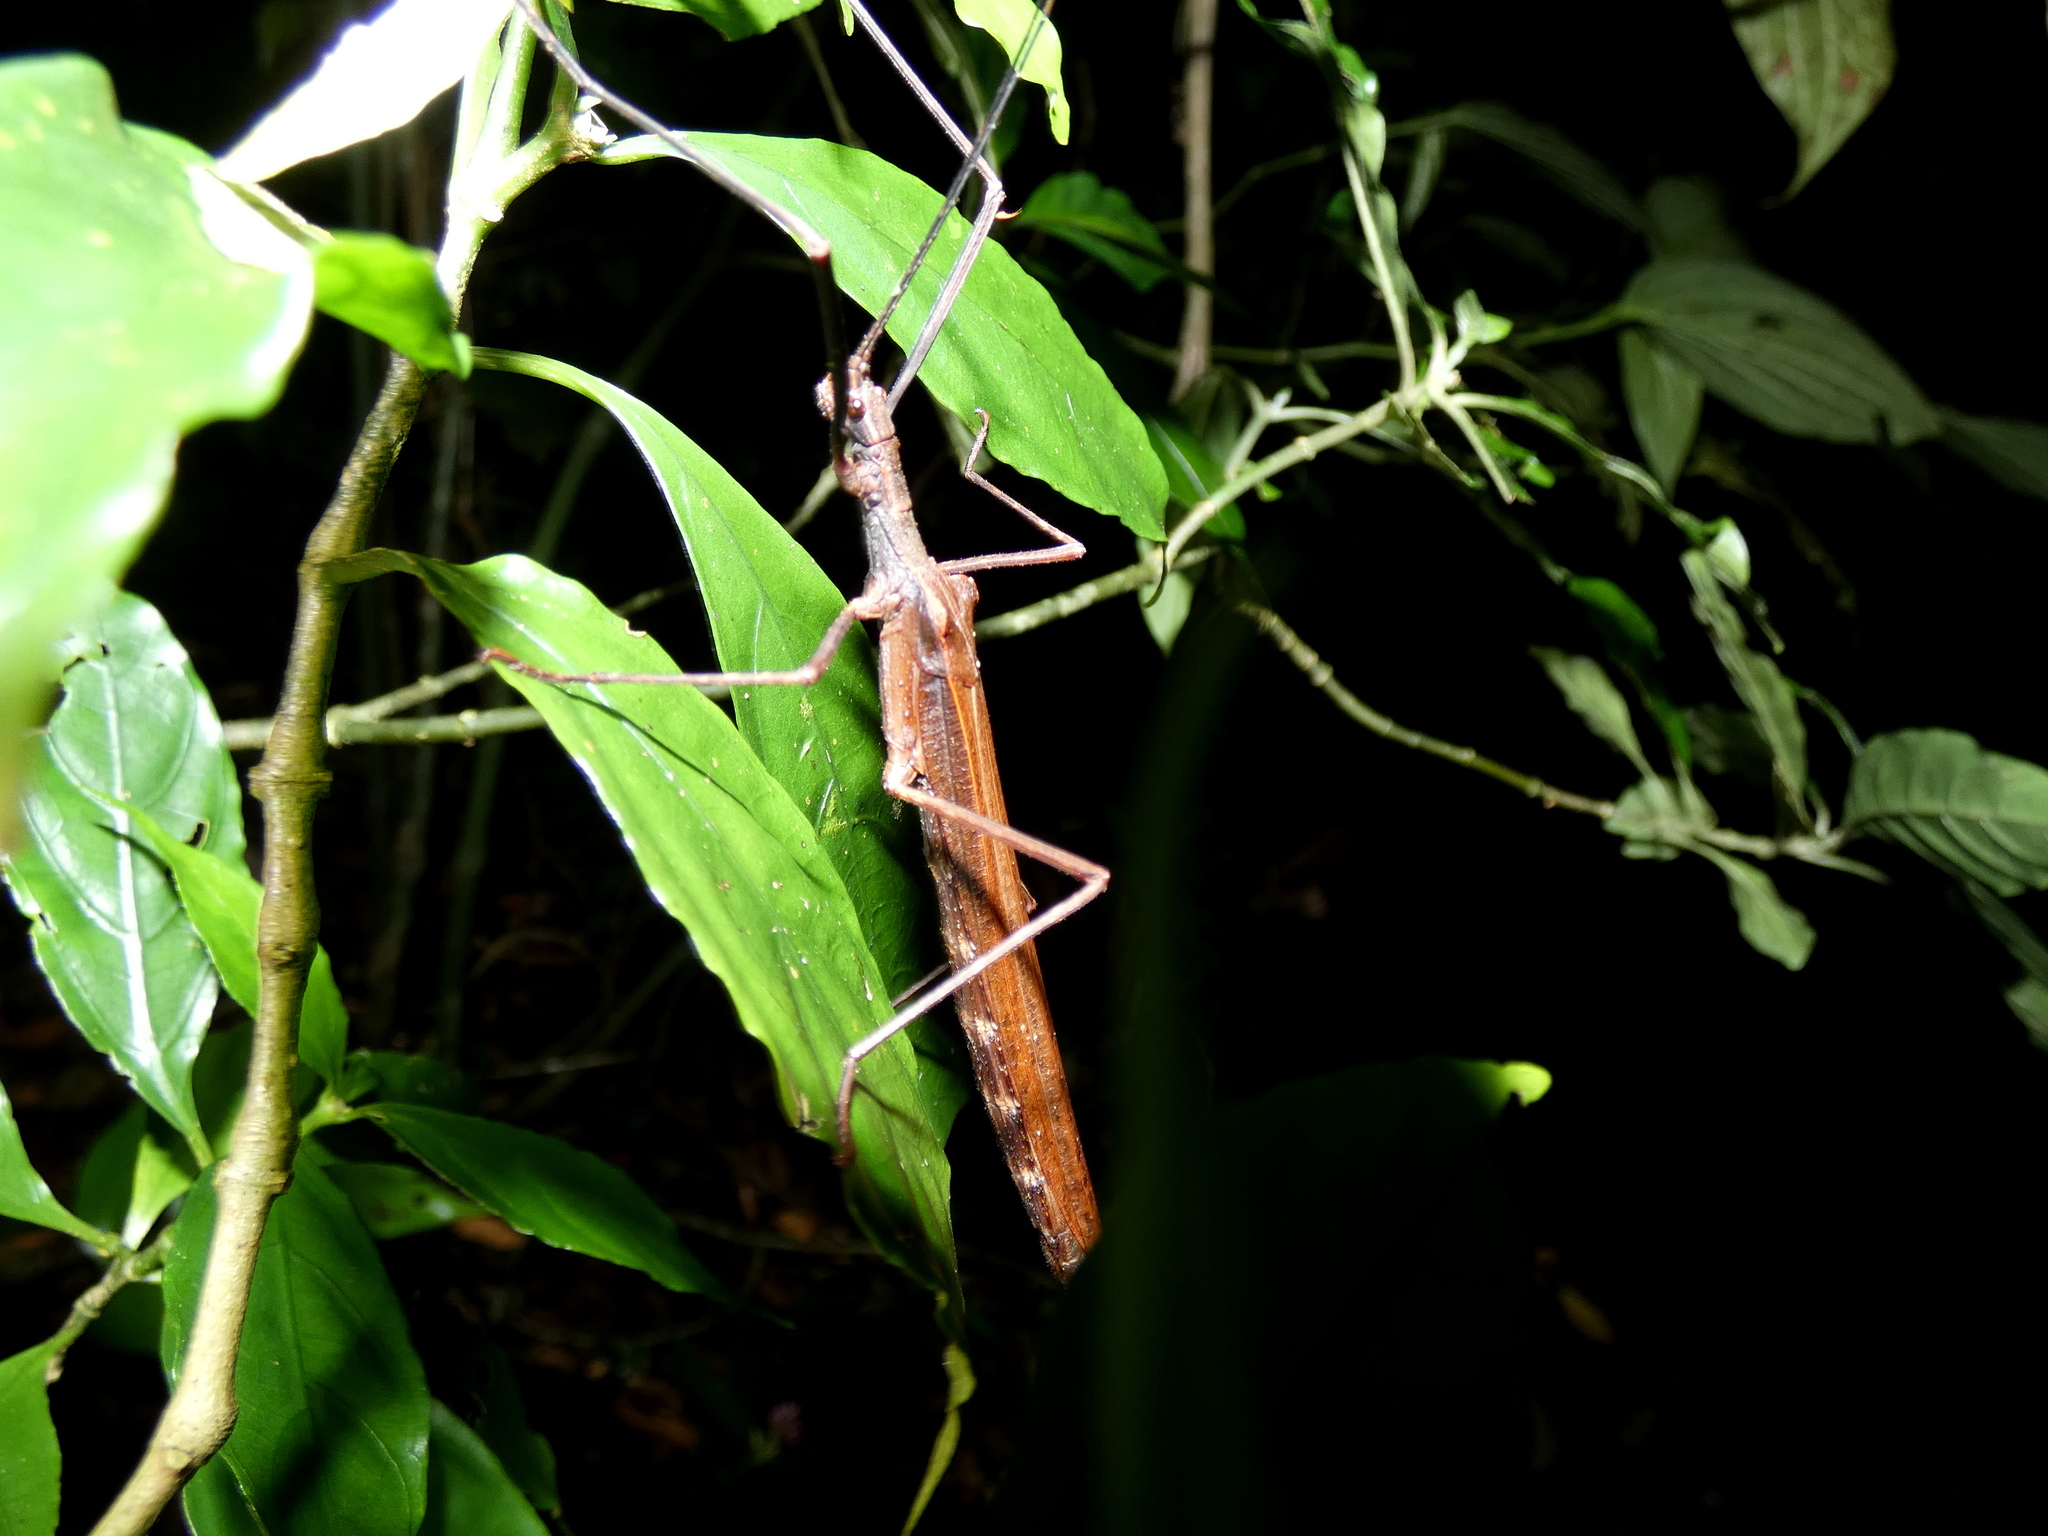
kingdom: Animalia
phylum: Arthropoda
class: Insecta
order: Phasmida
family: Pseudophasmatidae
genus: Pseudophasma
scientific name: Pseudophasma unicolor
